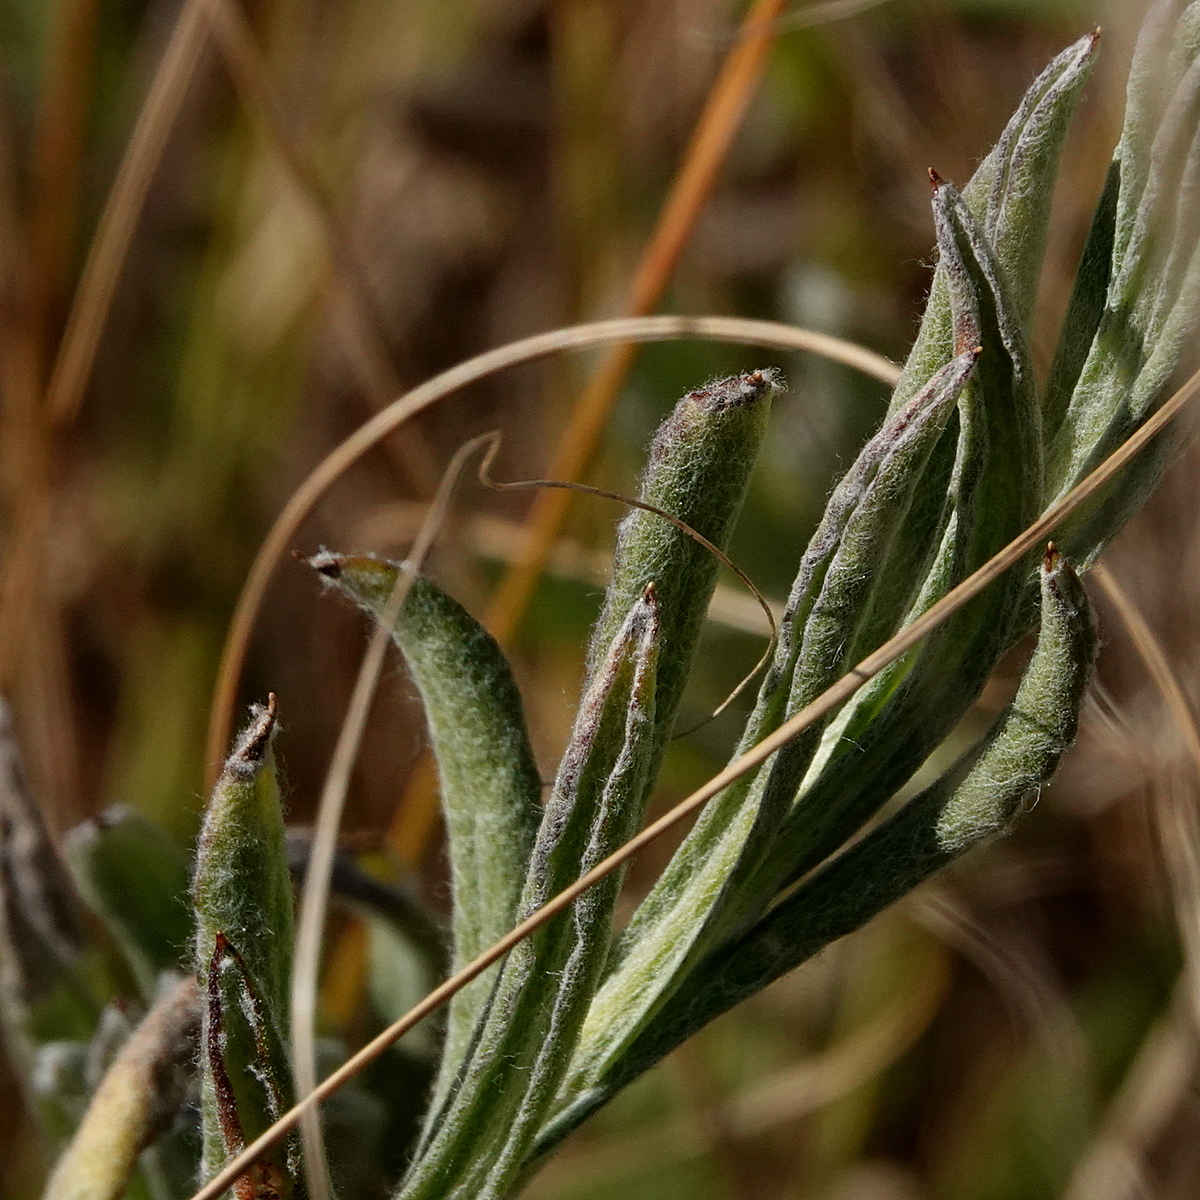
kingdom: Plantae
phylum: Tracheophyta
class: Magnoliopsida
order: Asterales
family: Asteraceae
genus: Chrysocephalum
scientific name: Chrysocephalum apiculatum
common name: Common everlasting
